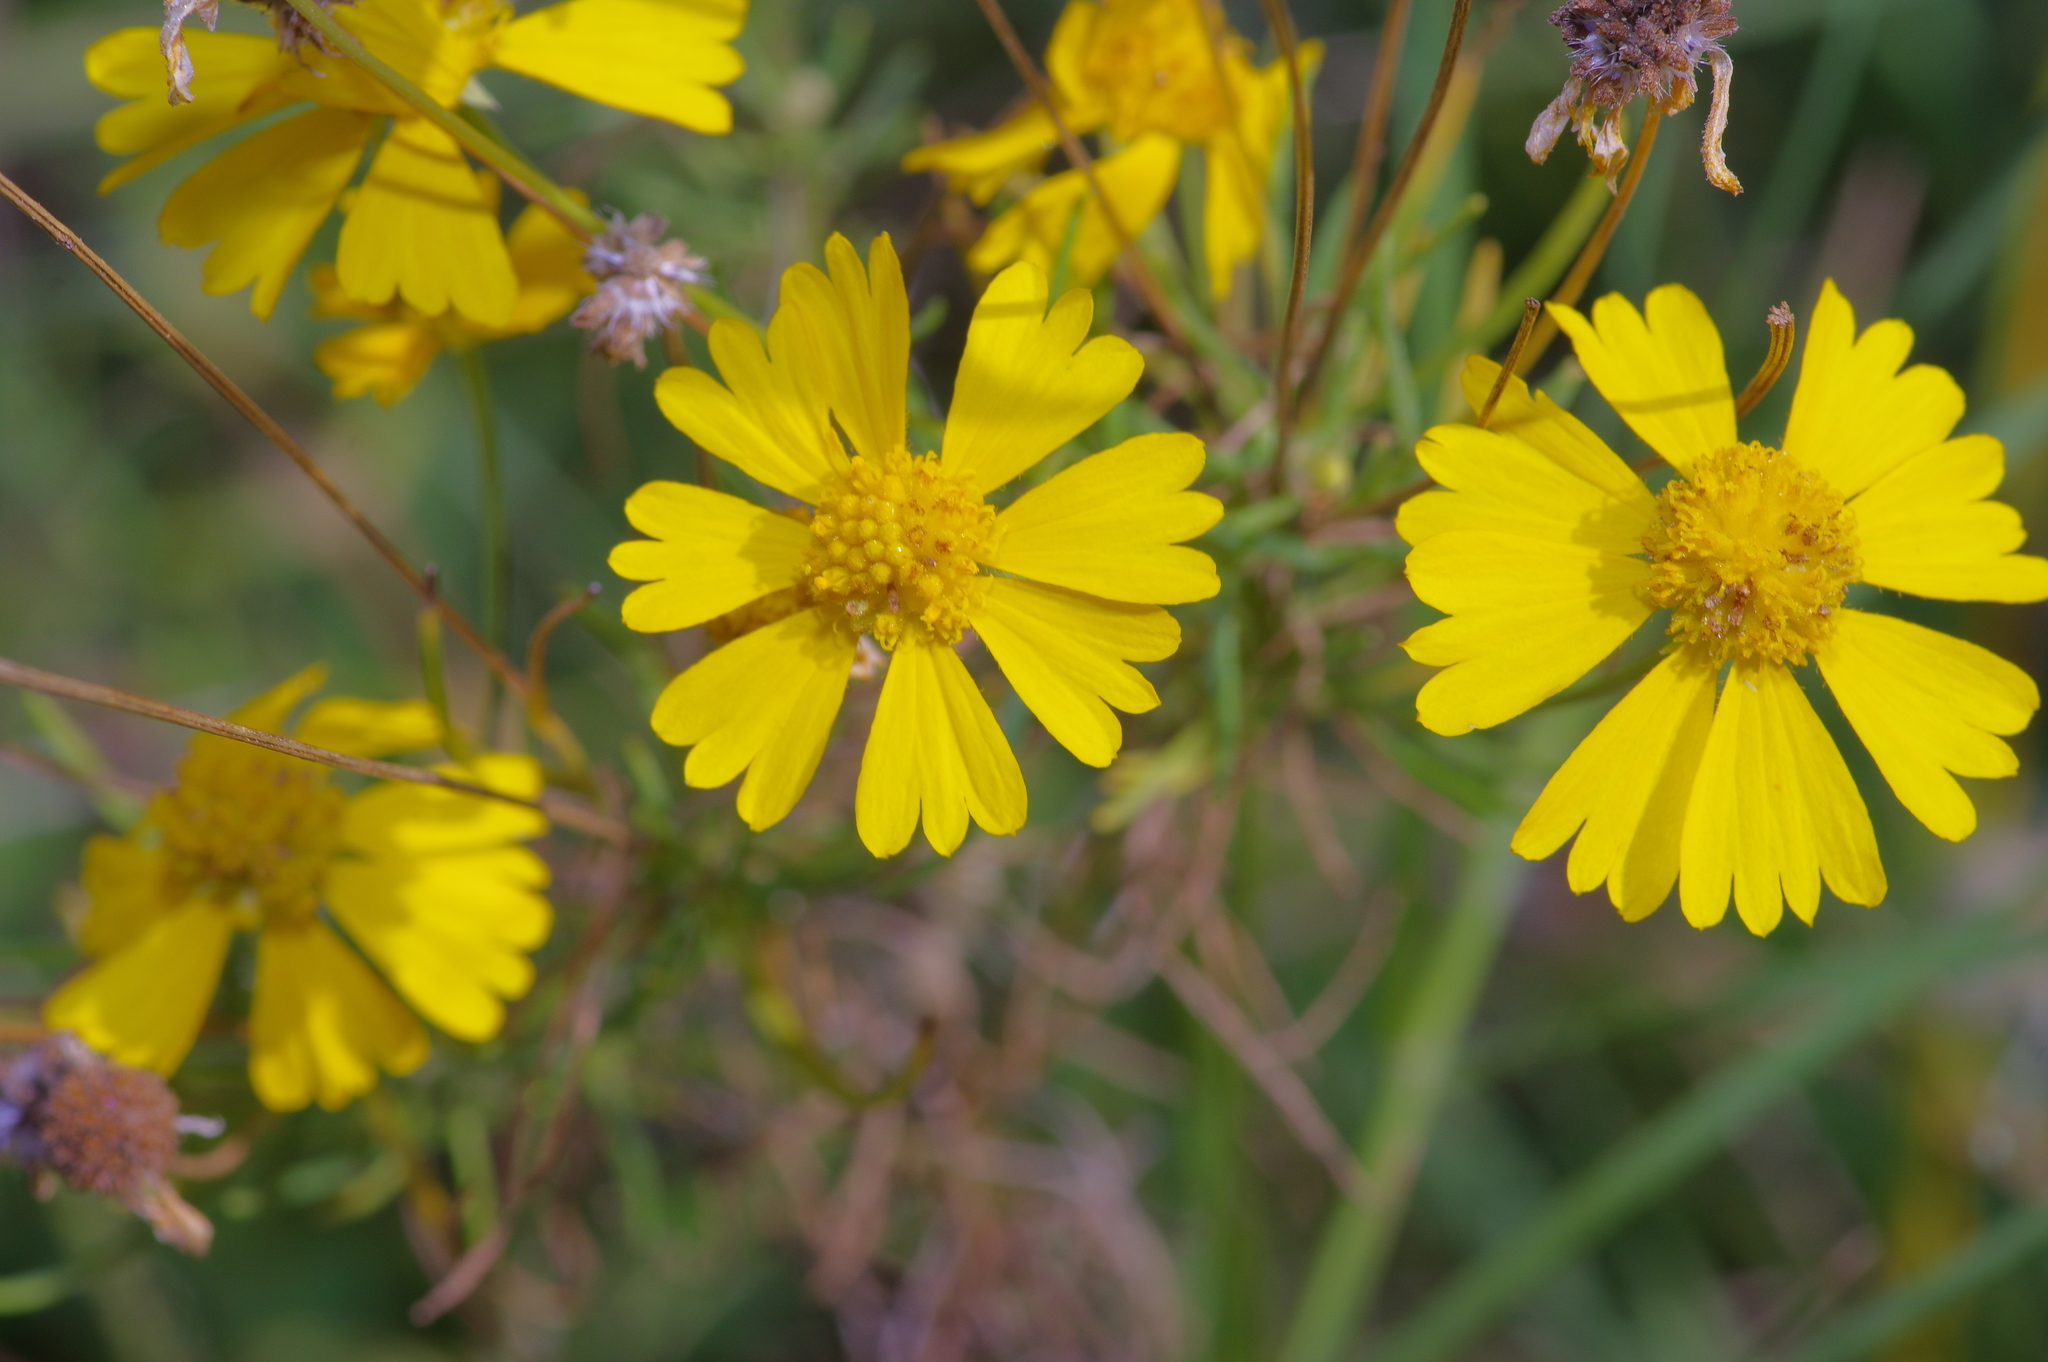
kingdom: Plantae
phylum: Tracheophyta
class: Magnoliopsida
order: Asterales
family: Asteraceae
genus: Helenium
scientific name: Helenium amarum
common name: Bitter sneezeweed
